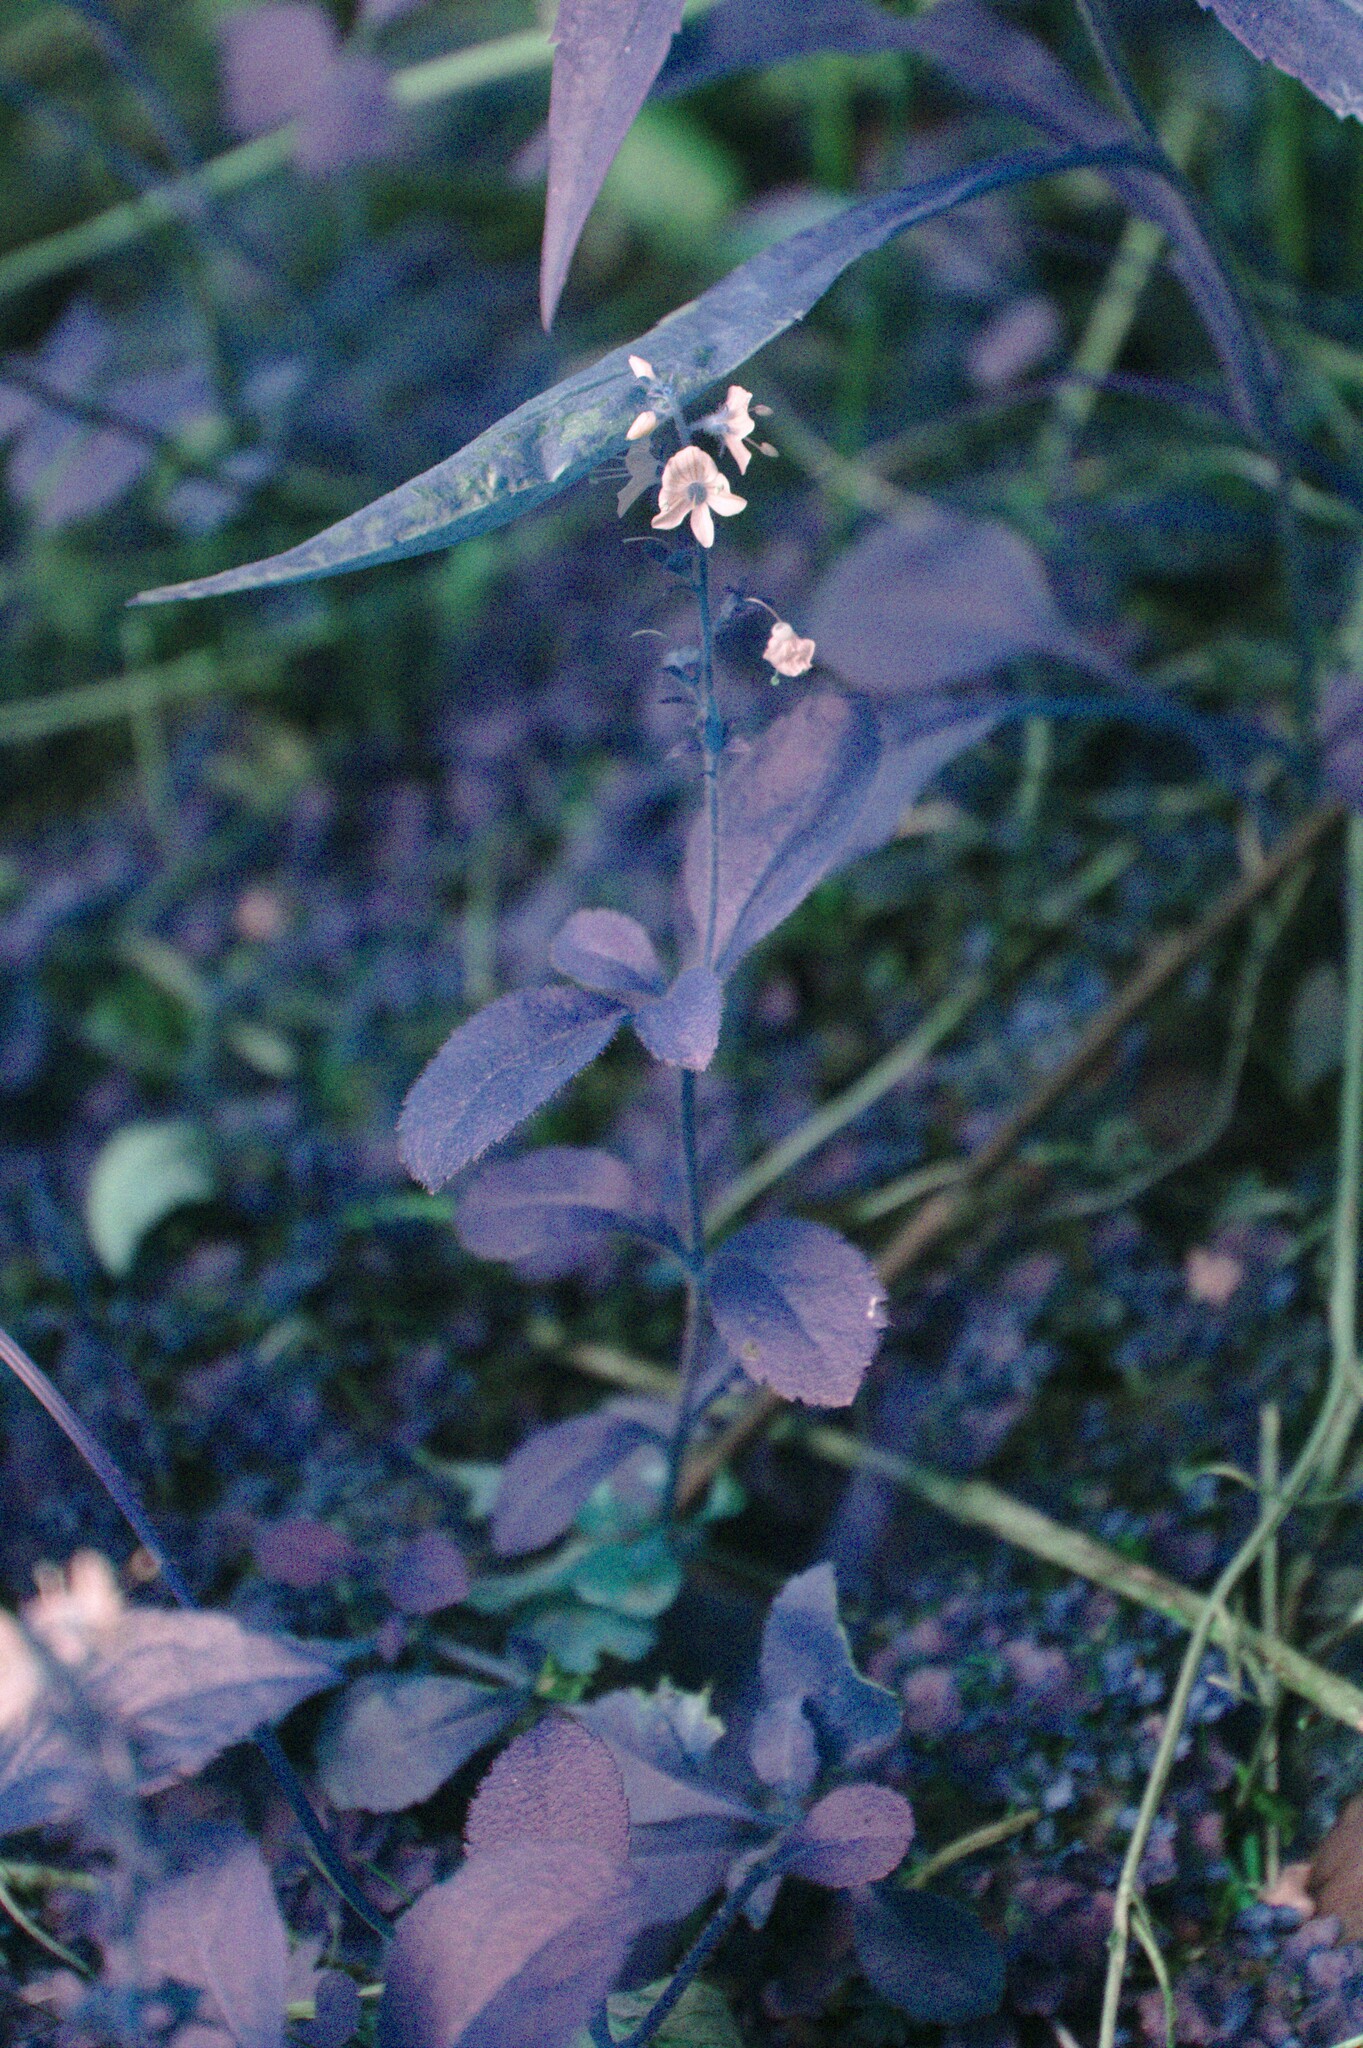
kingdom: Plantae
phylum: Tracheophyta
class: Magnoliopsida
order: Lamiales
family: Plantaginaceae
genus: Veronica
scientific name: Veronica officinalis
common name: Common speedwell
